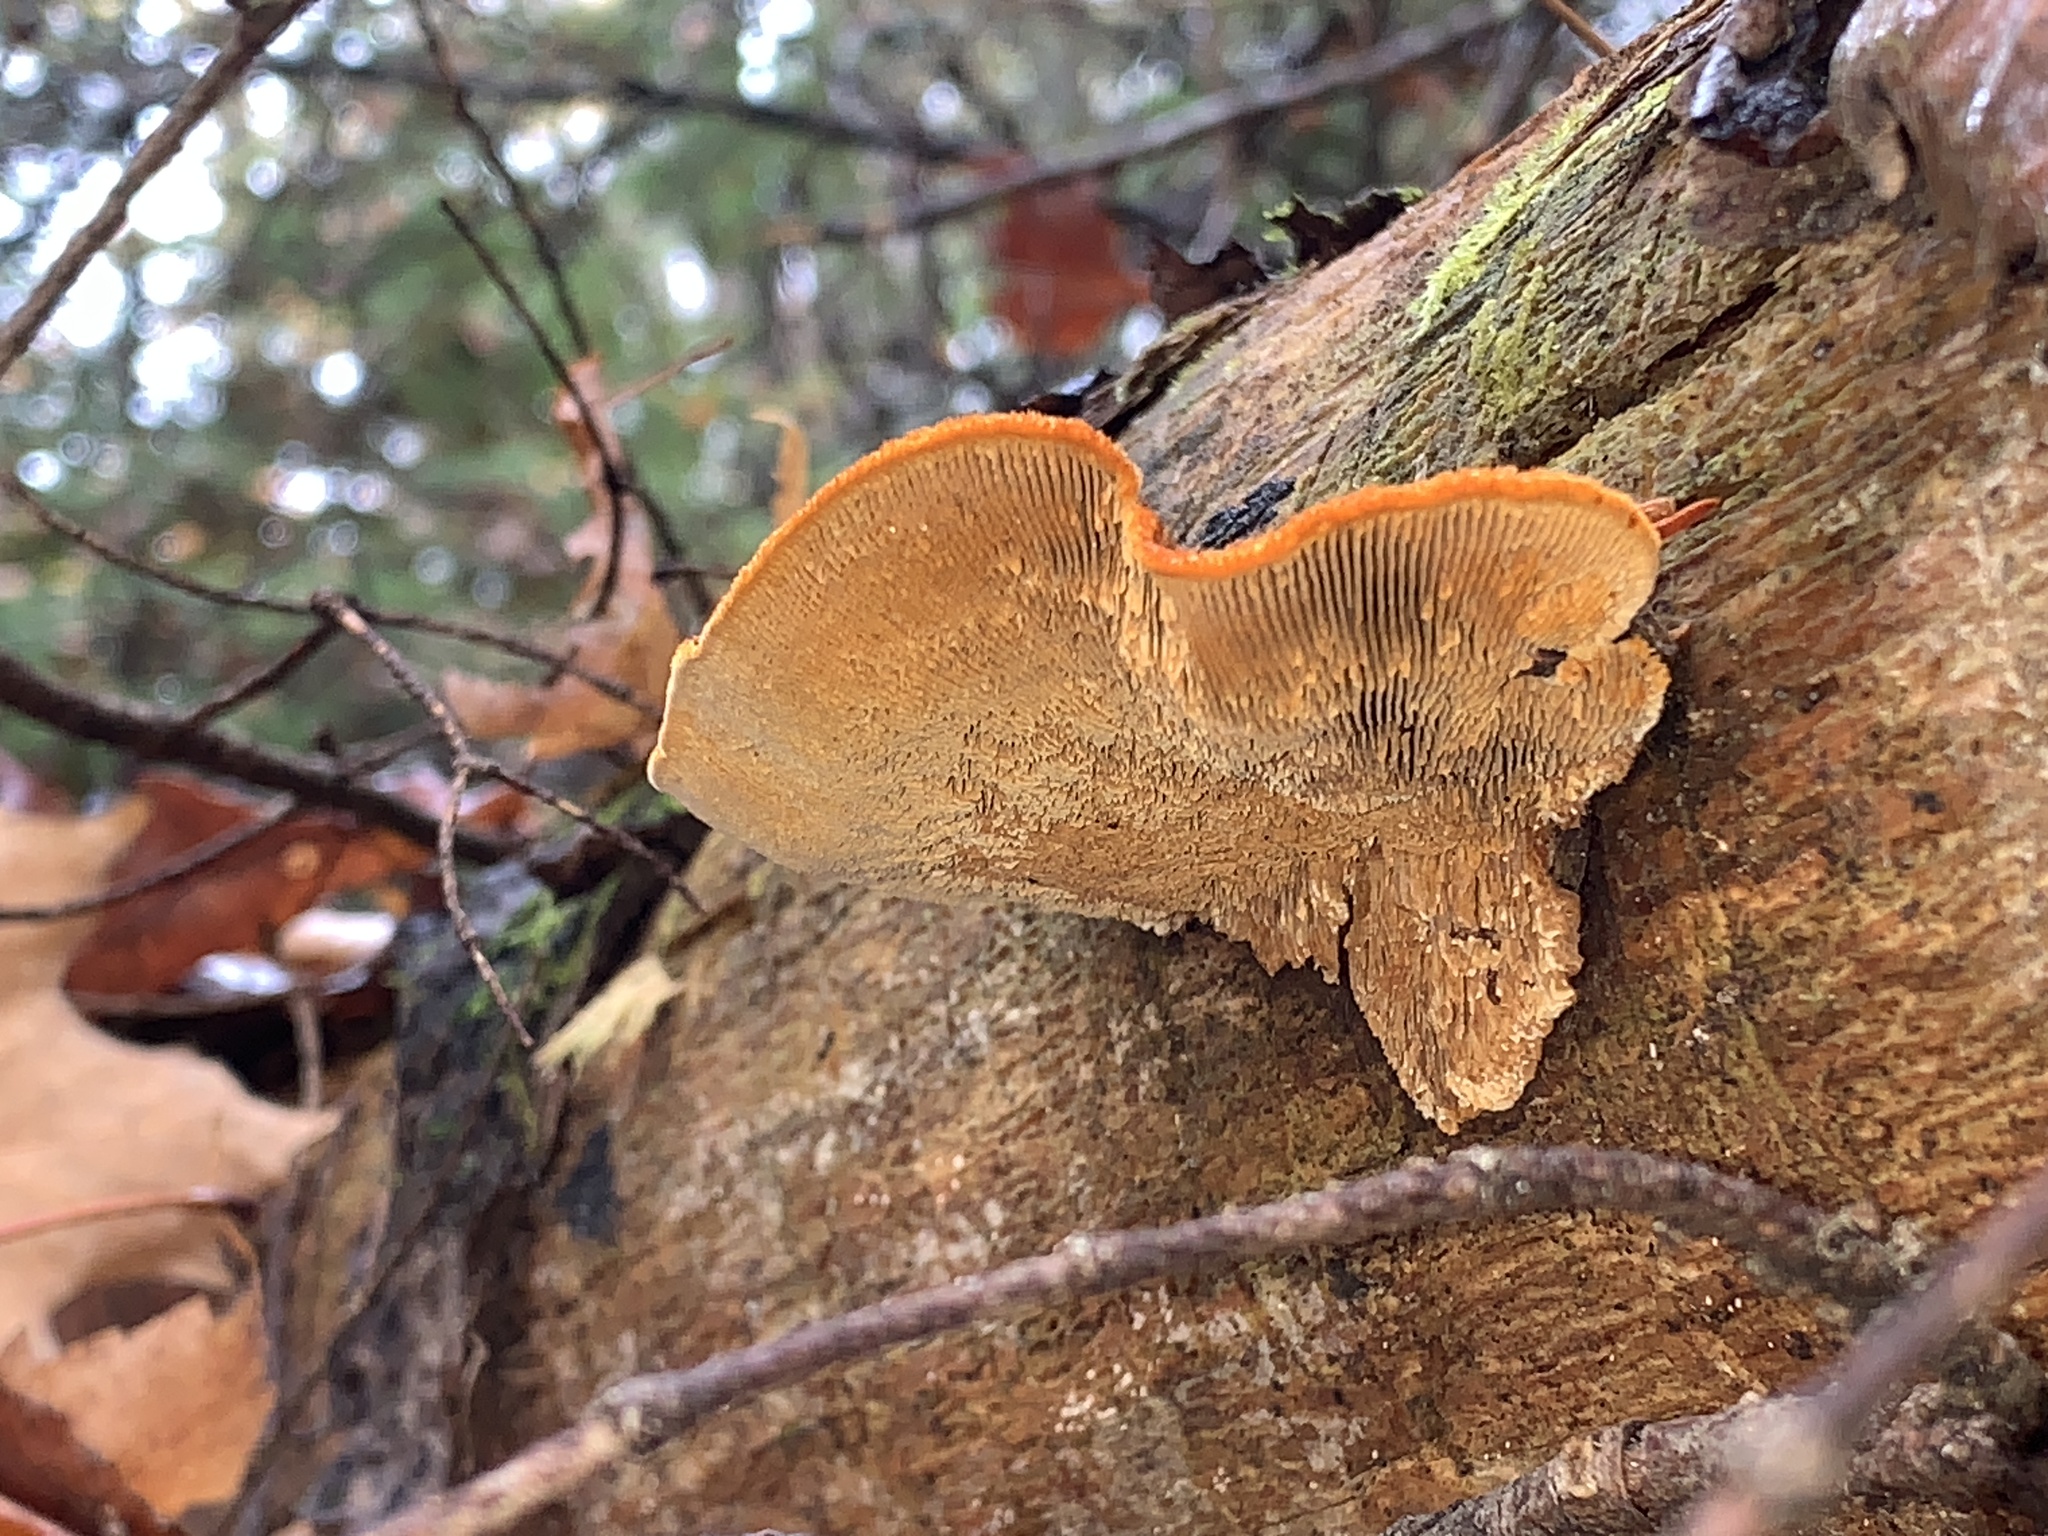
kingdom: Fungi
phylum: Basidiomycota
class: Agaricomycetes
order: Gloeophyllales
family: Gloeophyllaceae
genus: Gloeophyllum
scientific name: Gloeophyllum sepiarium
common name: Conifer mazegill
